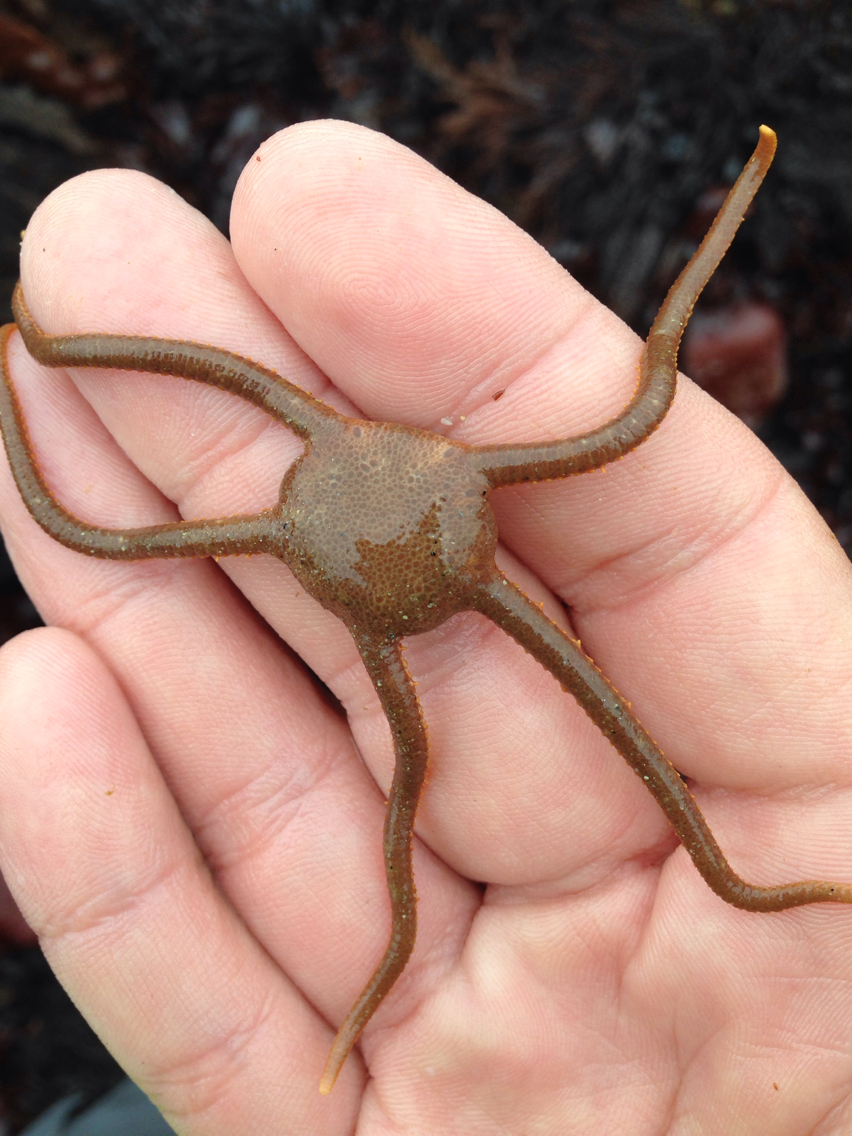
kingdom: Animalia
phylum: Echinodermata
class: Ophiuroidea
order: Amphilepidida
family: Hemieuryalidae
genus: Ophioplocus
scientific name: Ophioplocus esmarki
